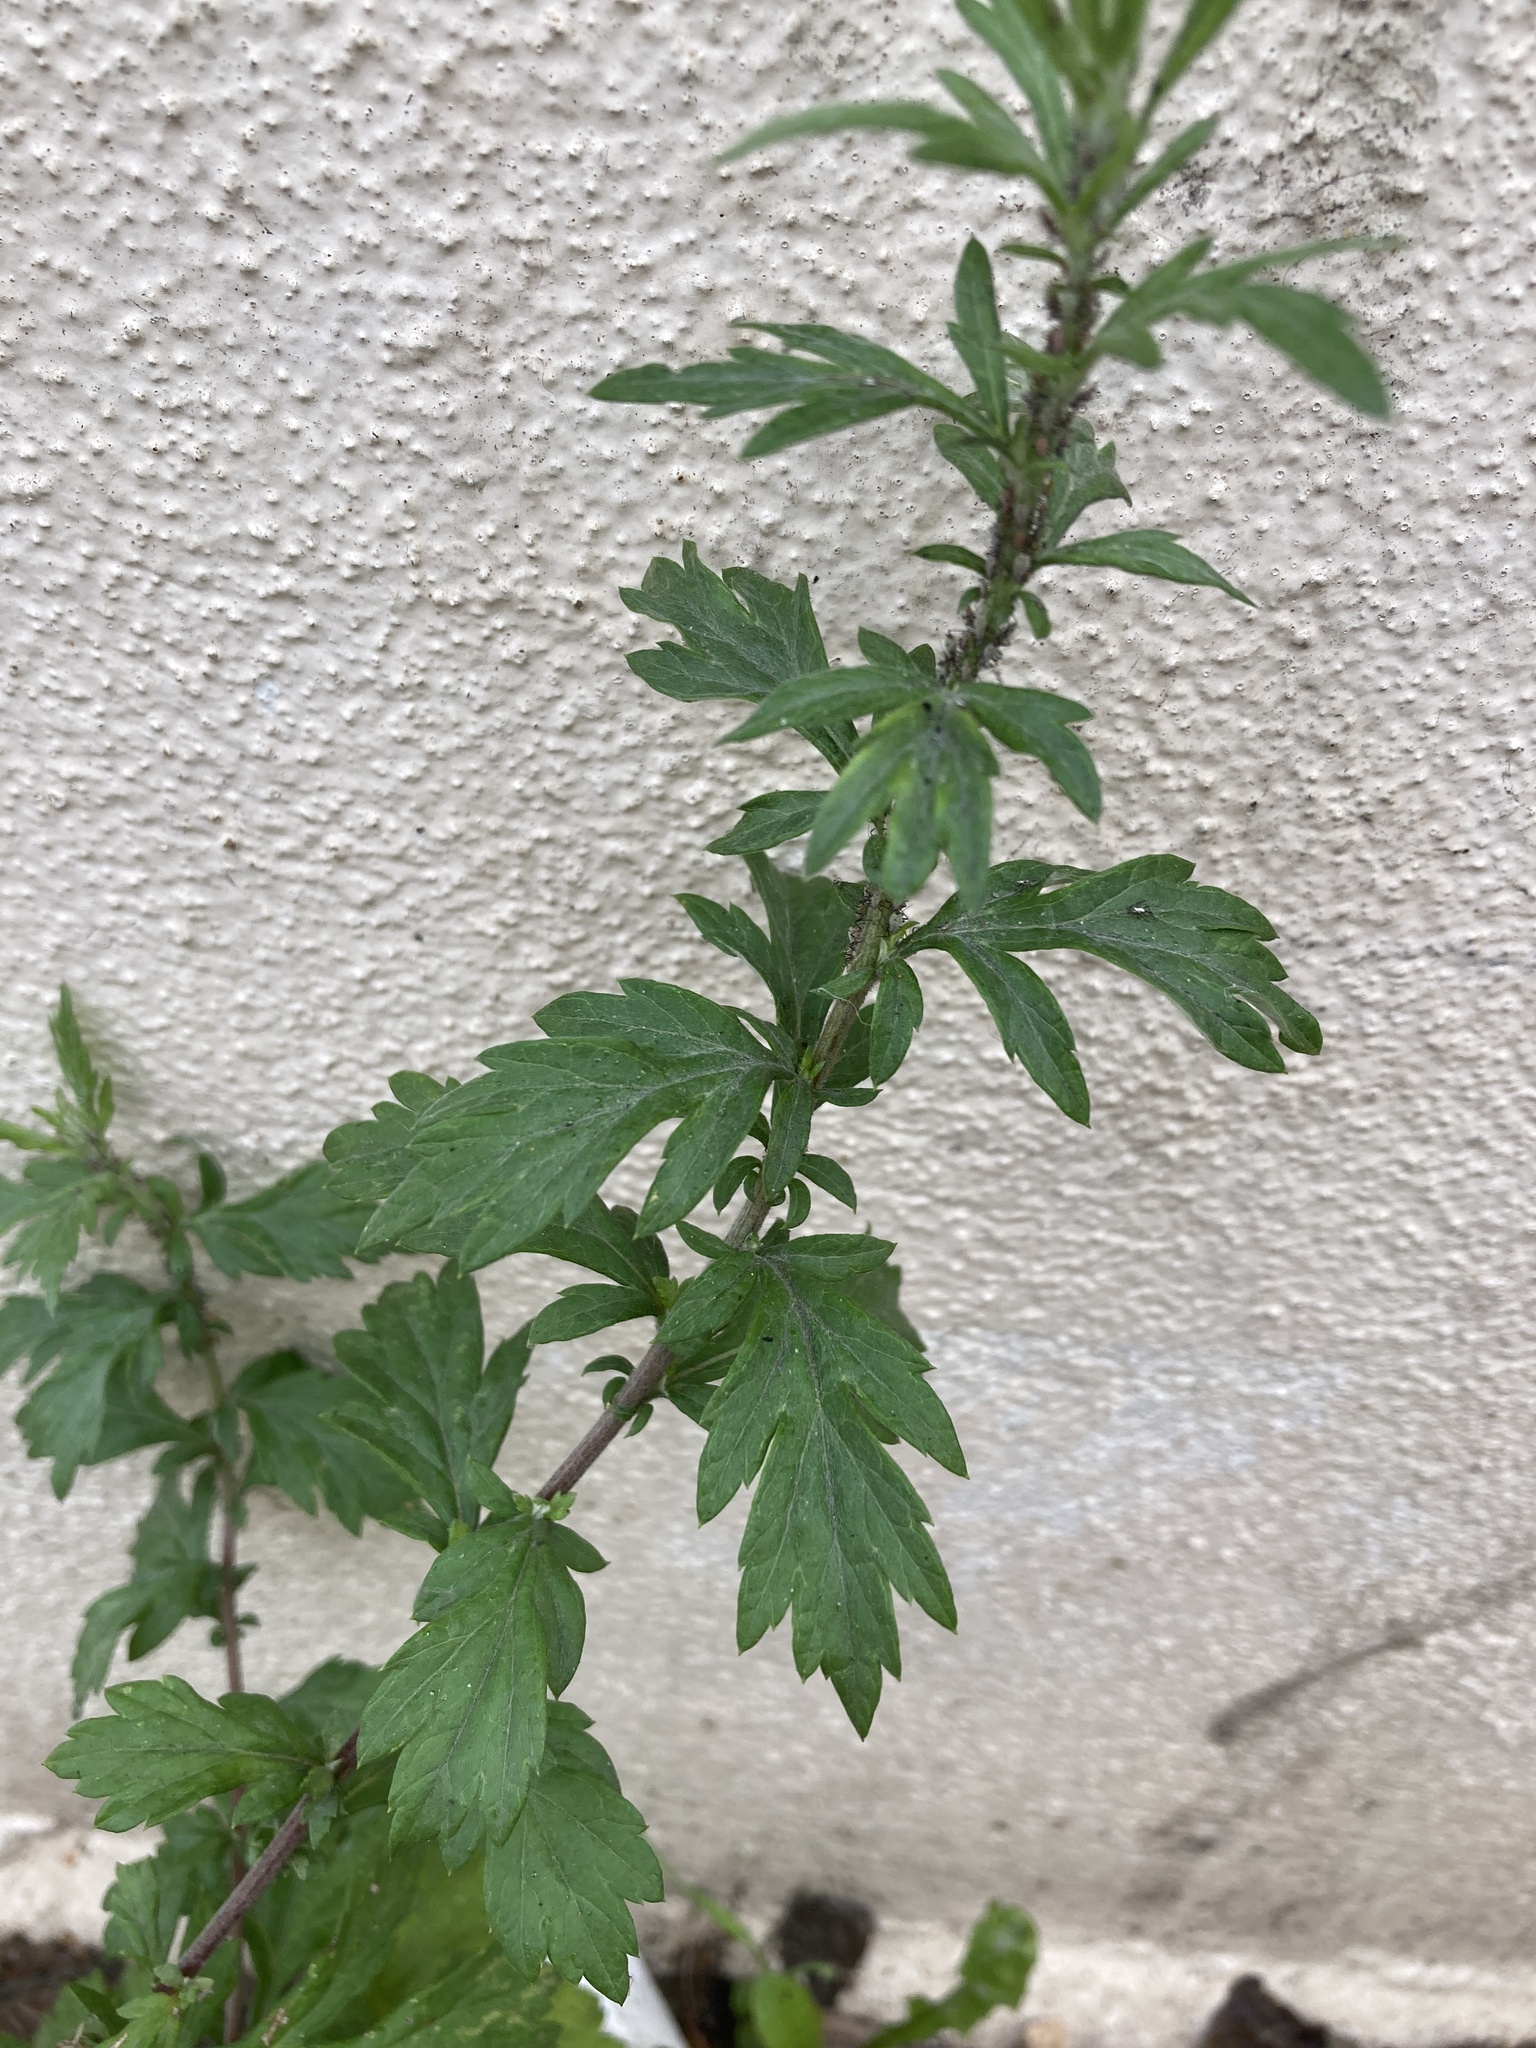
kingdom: Plantae
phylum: Tracheophyta
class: Magnoliopsida
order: Asterales
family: Asteraceae
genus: Artemisia
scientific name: Artemisia vulgaris
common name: Mugwort
